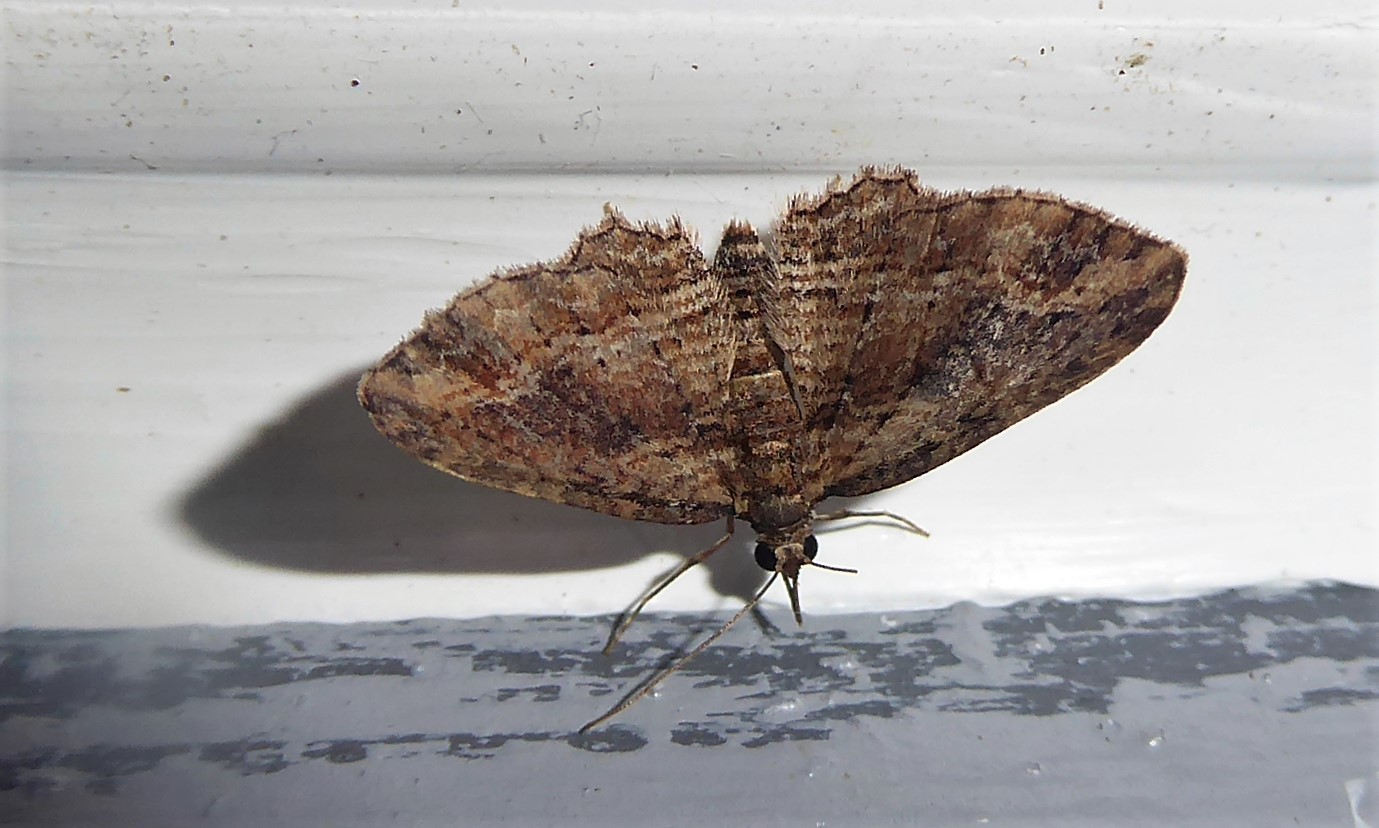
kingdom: Animalia
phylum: Arthropoda
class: Insecta
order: Lepidoptera
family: Geometridae
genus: Chloroclystis
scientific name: Chloroclystis filata
